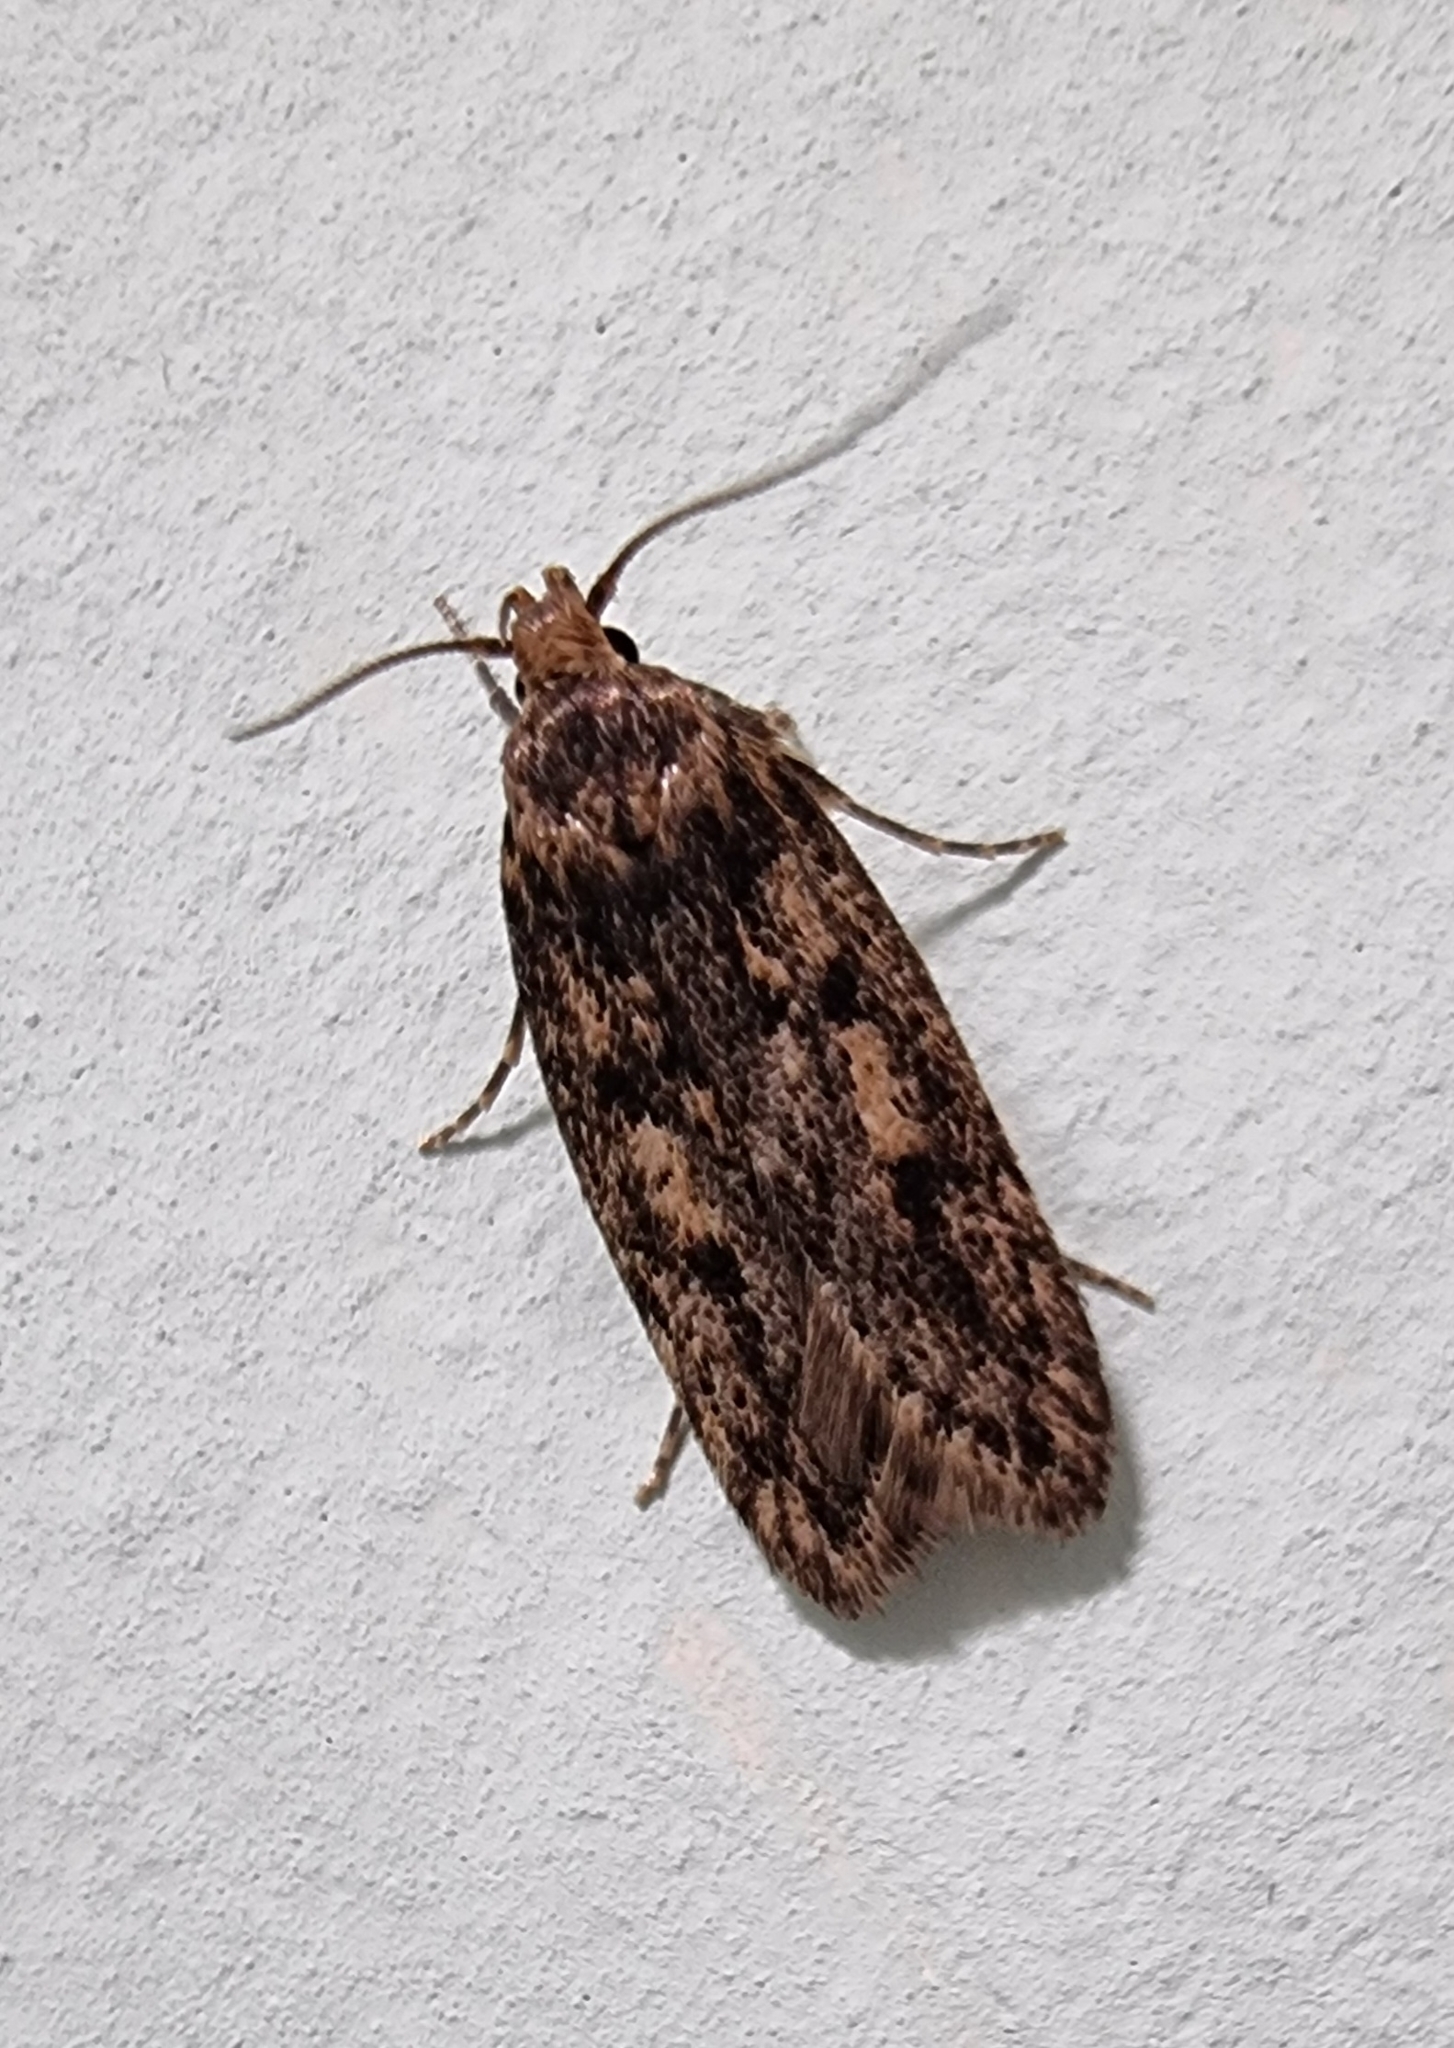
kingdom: Animalia
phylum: Arthropoda
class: Insecta
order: Lepidoptera
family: Oecophoridae
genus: Hofmannophila
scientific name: Hofmannophila pseudospretella
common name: Brown house moth
